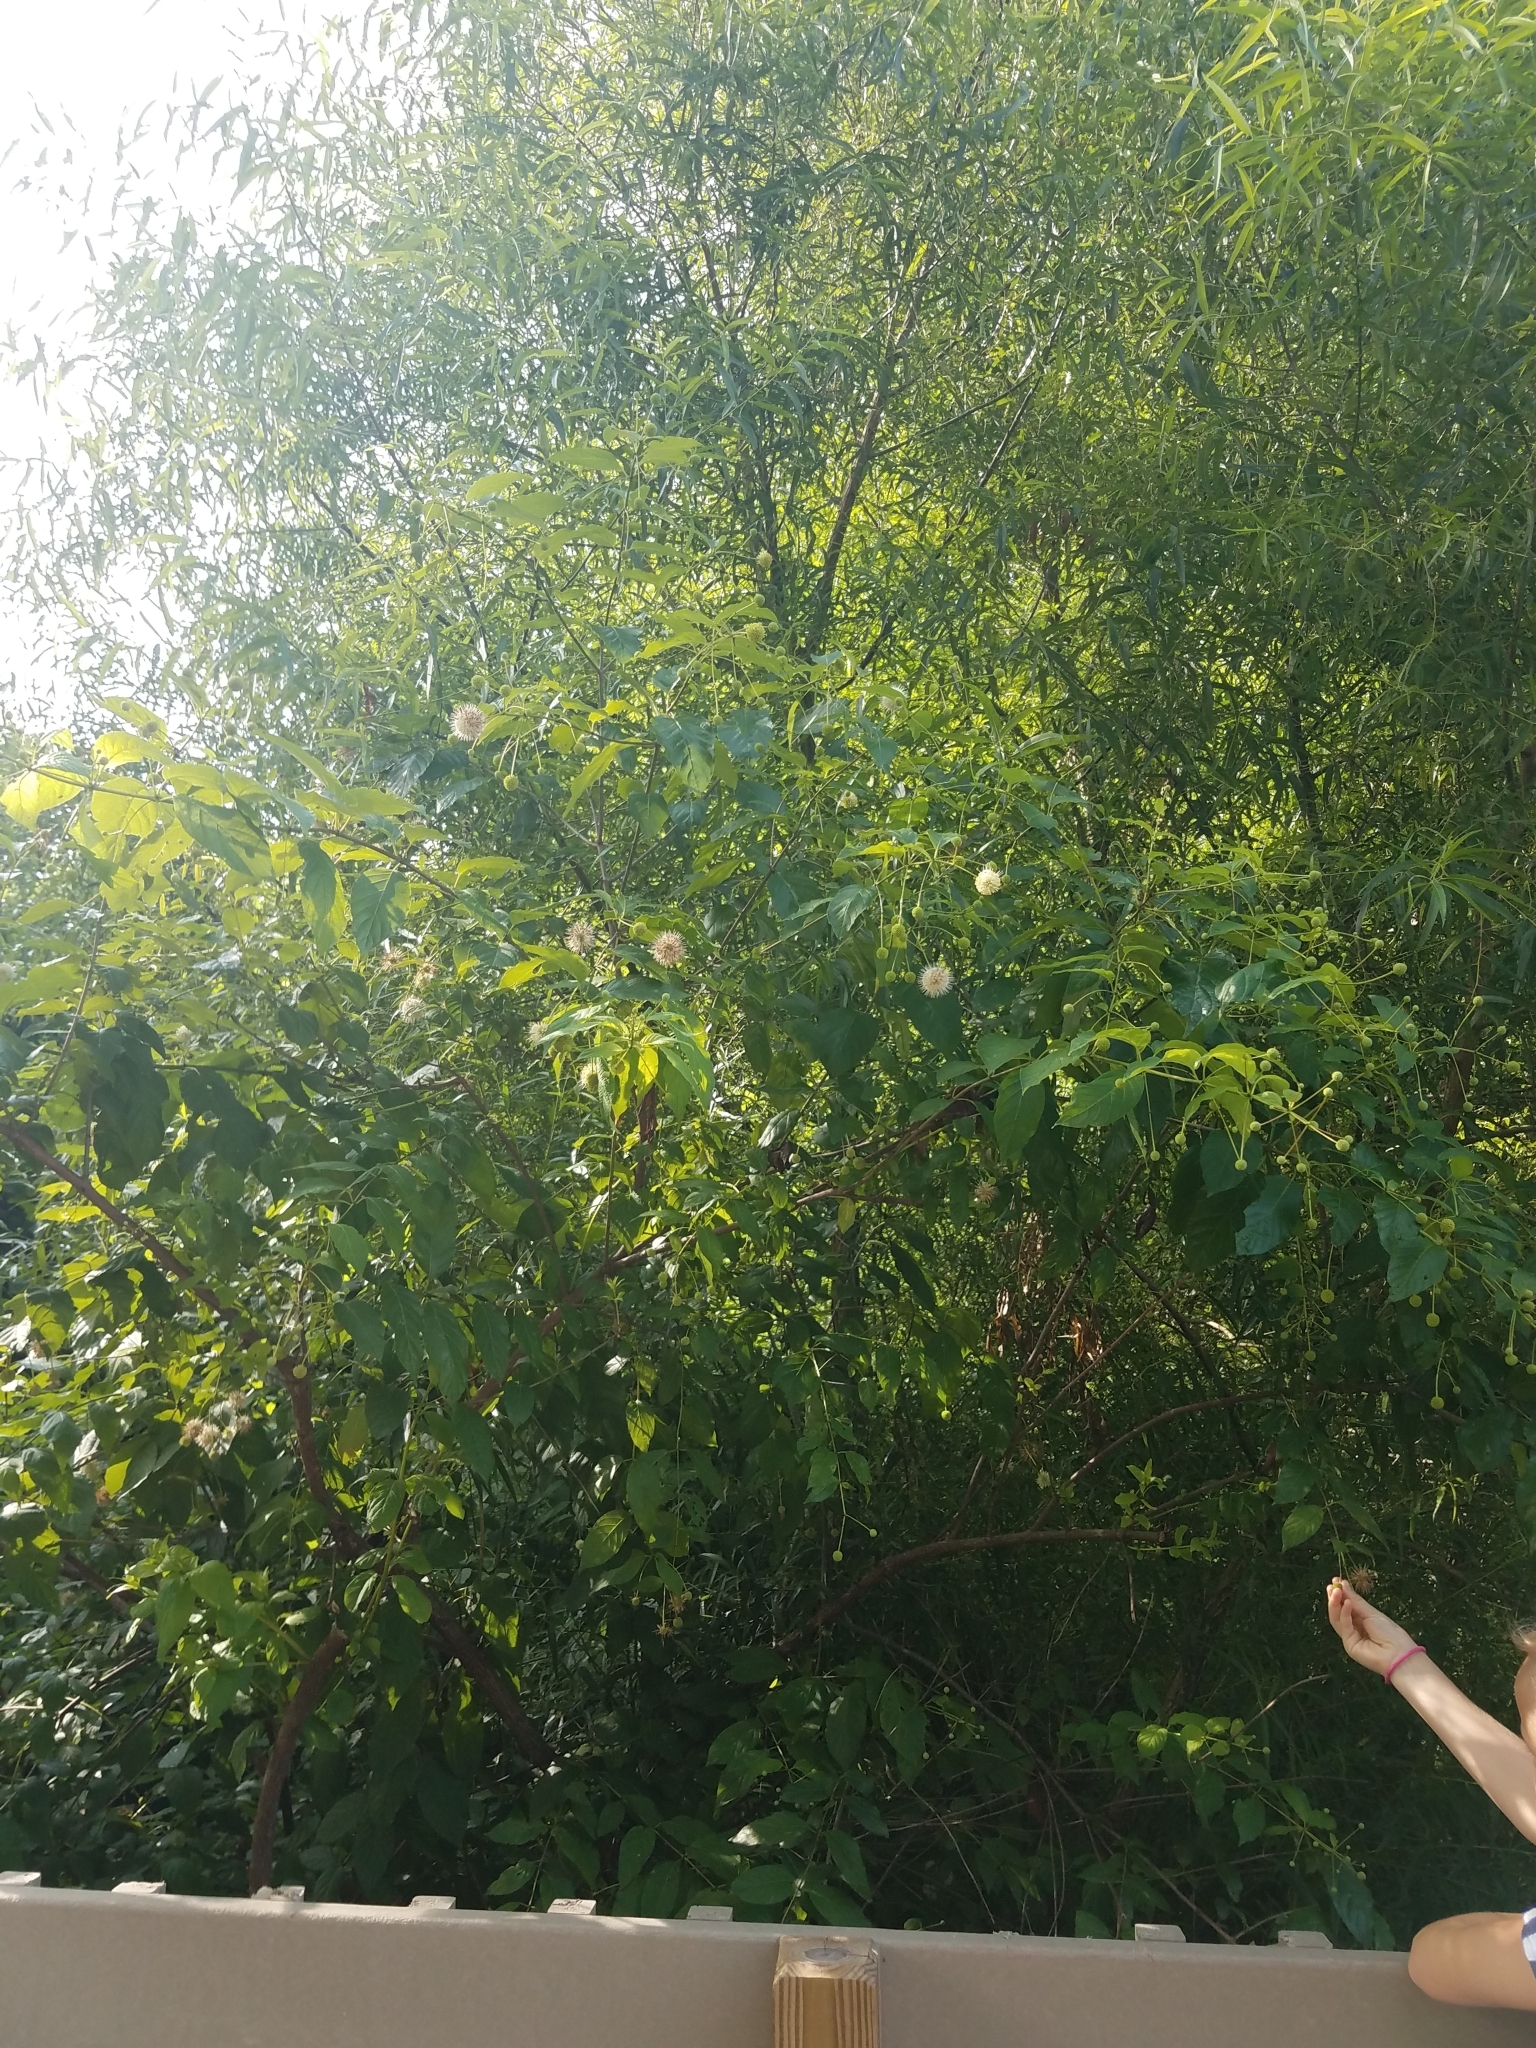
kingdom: Plantae
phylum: Tracheophyta
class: Magnoliopsida
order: Gentianales
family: Rubiaceae
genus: Cephalanthus
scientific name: Cephalanthus occidentalis
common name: Button-willow
